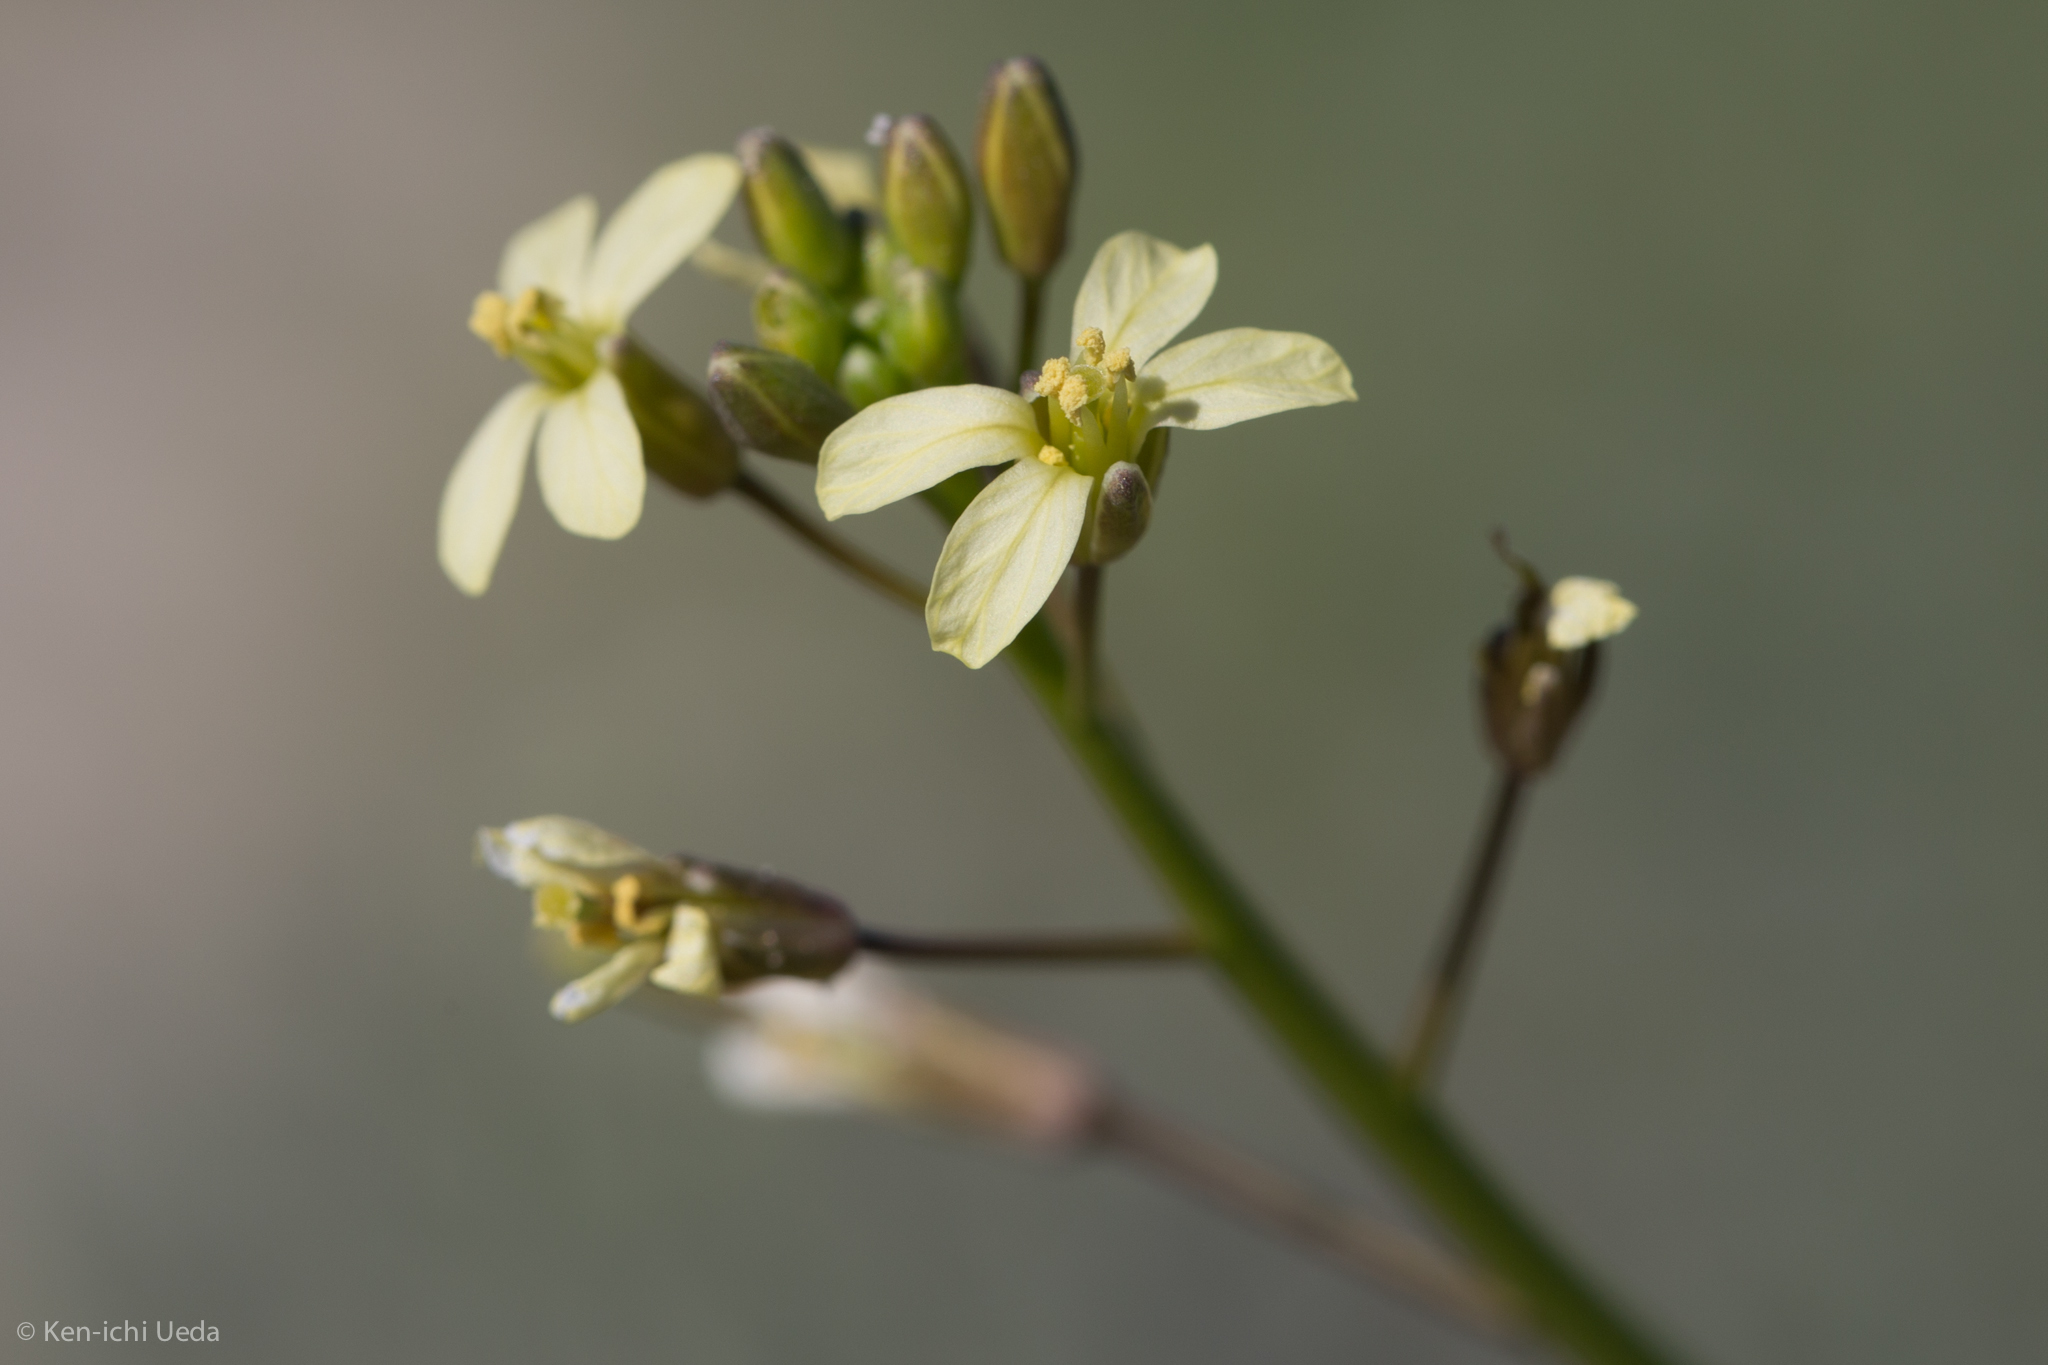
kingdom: Plantae
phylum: Tracheophyta
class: Magnoliopsida
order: Brassicales
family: Brassicaceae
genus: Brassica
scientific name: Brassica tournefortii
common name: Pale cabbage
